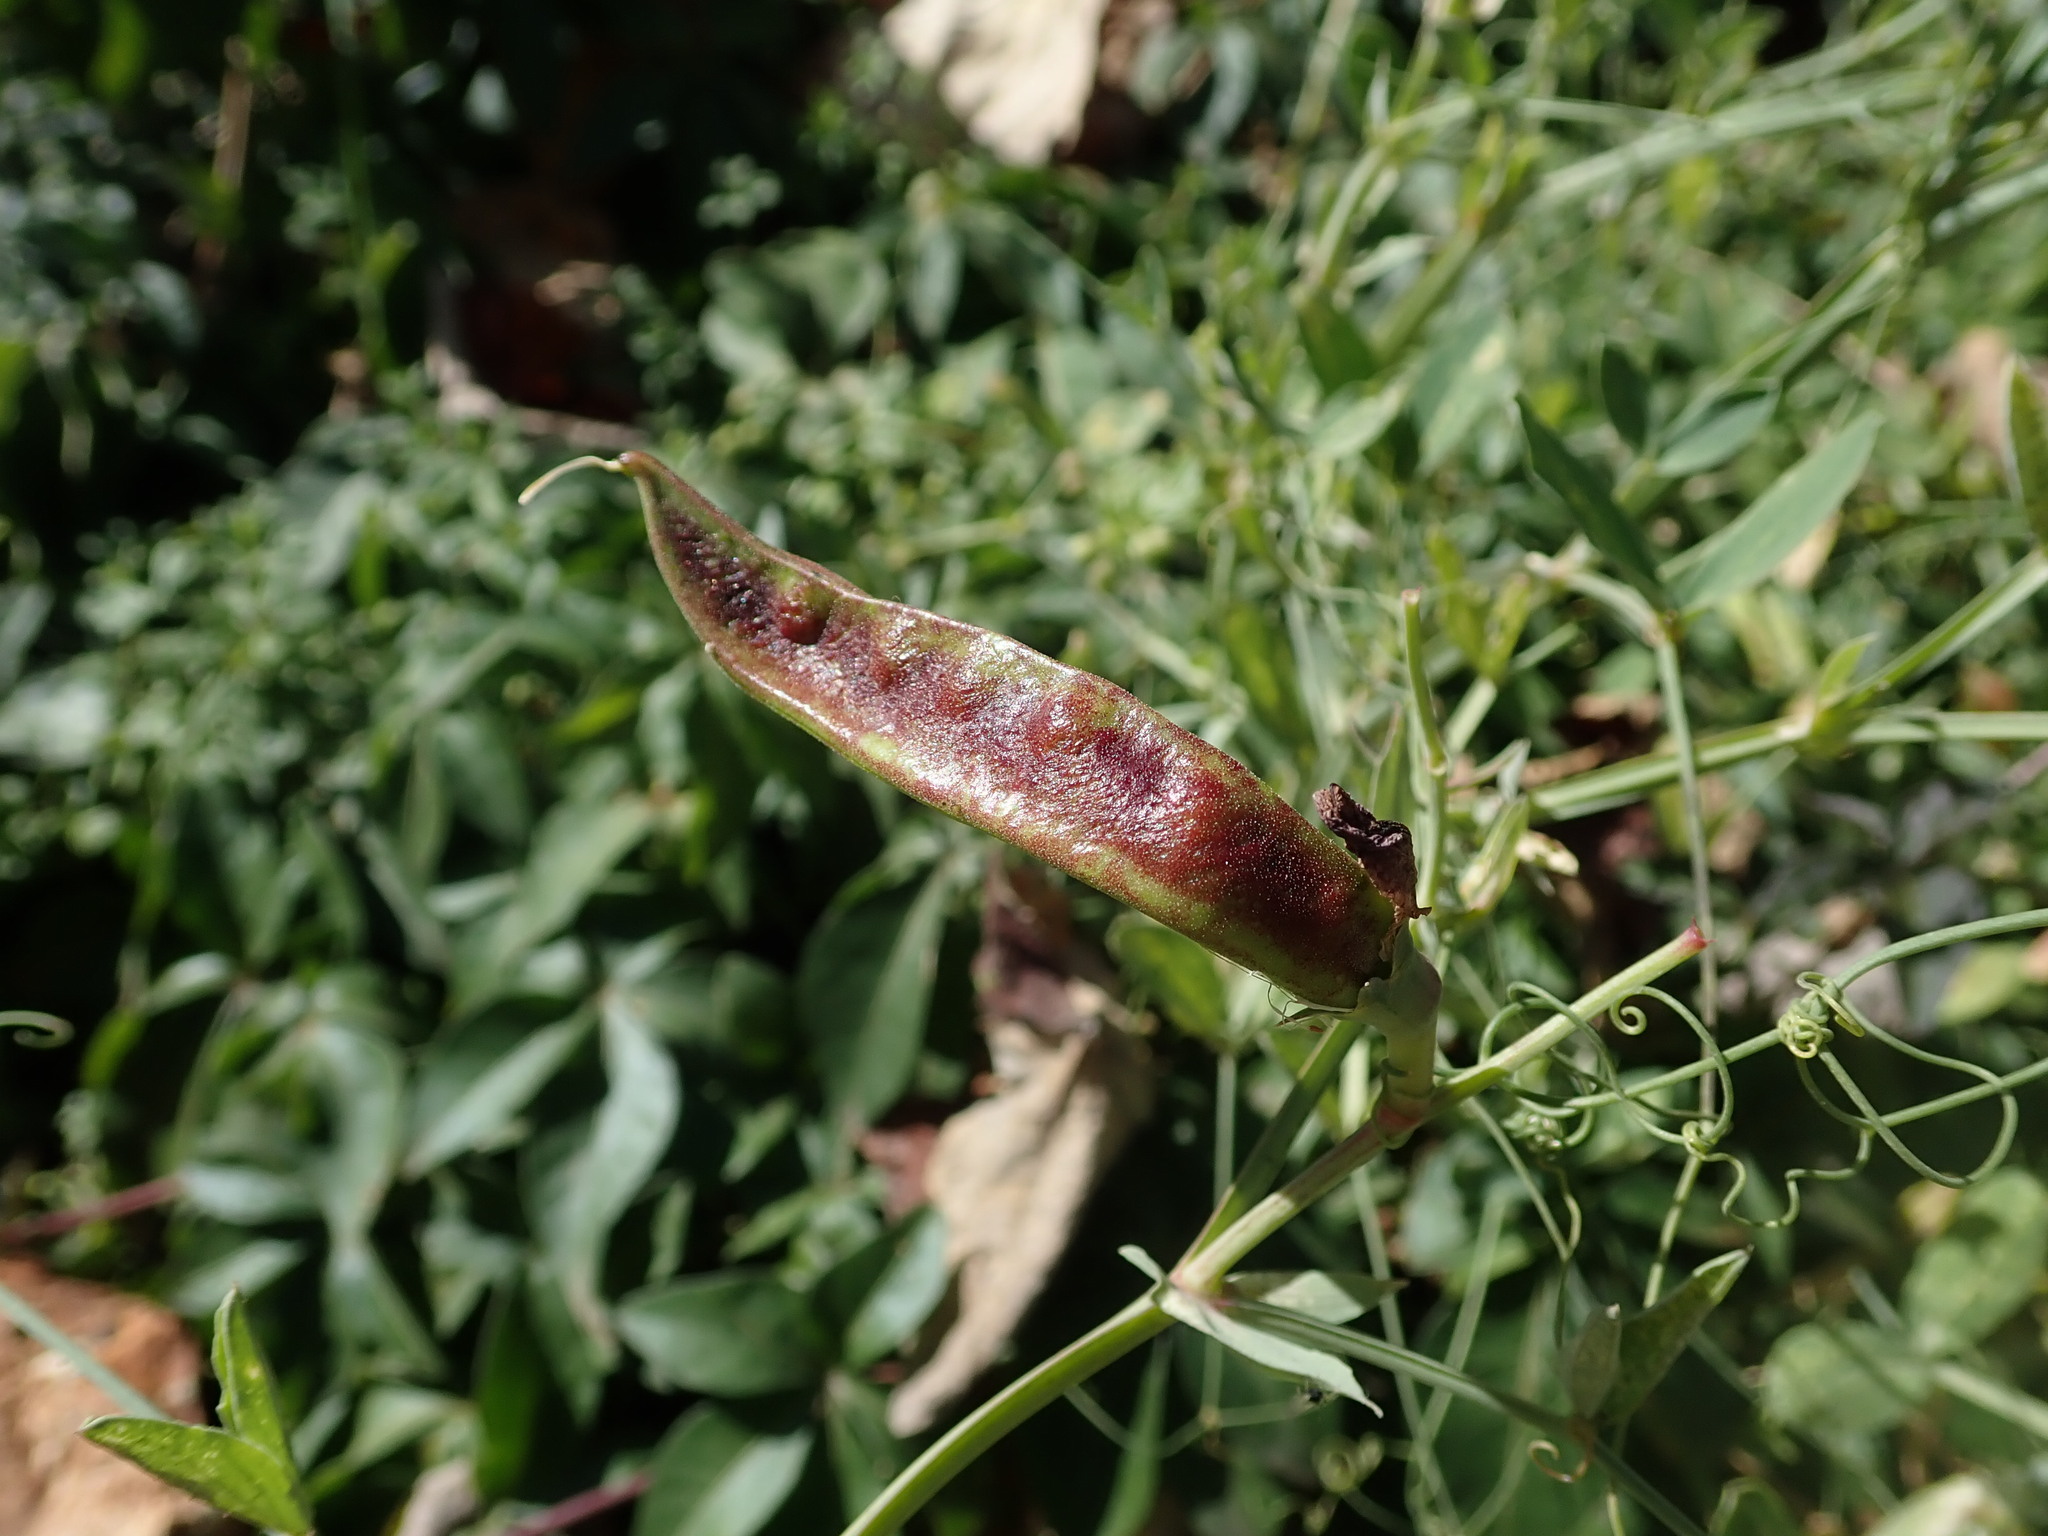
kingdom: Plantae
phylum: Tracheophyta
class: Magnoliopsida
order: Fabales
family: Fabaceae
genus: Lathyrus
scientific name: Lathyrus tingitanus
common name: Tangier pea
